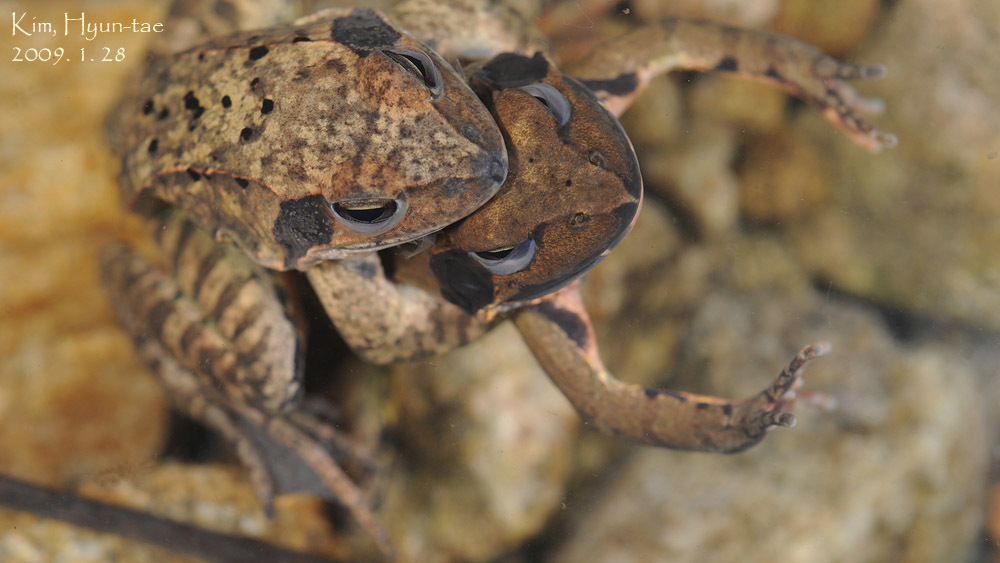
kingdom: Animalia
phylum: Chordata
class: Amphibia
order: Anura
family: Ranidae
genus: Rana
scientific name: Rana uenoi
